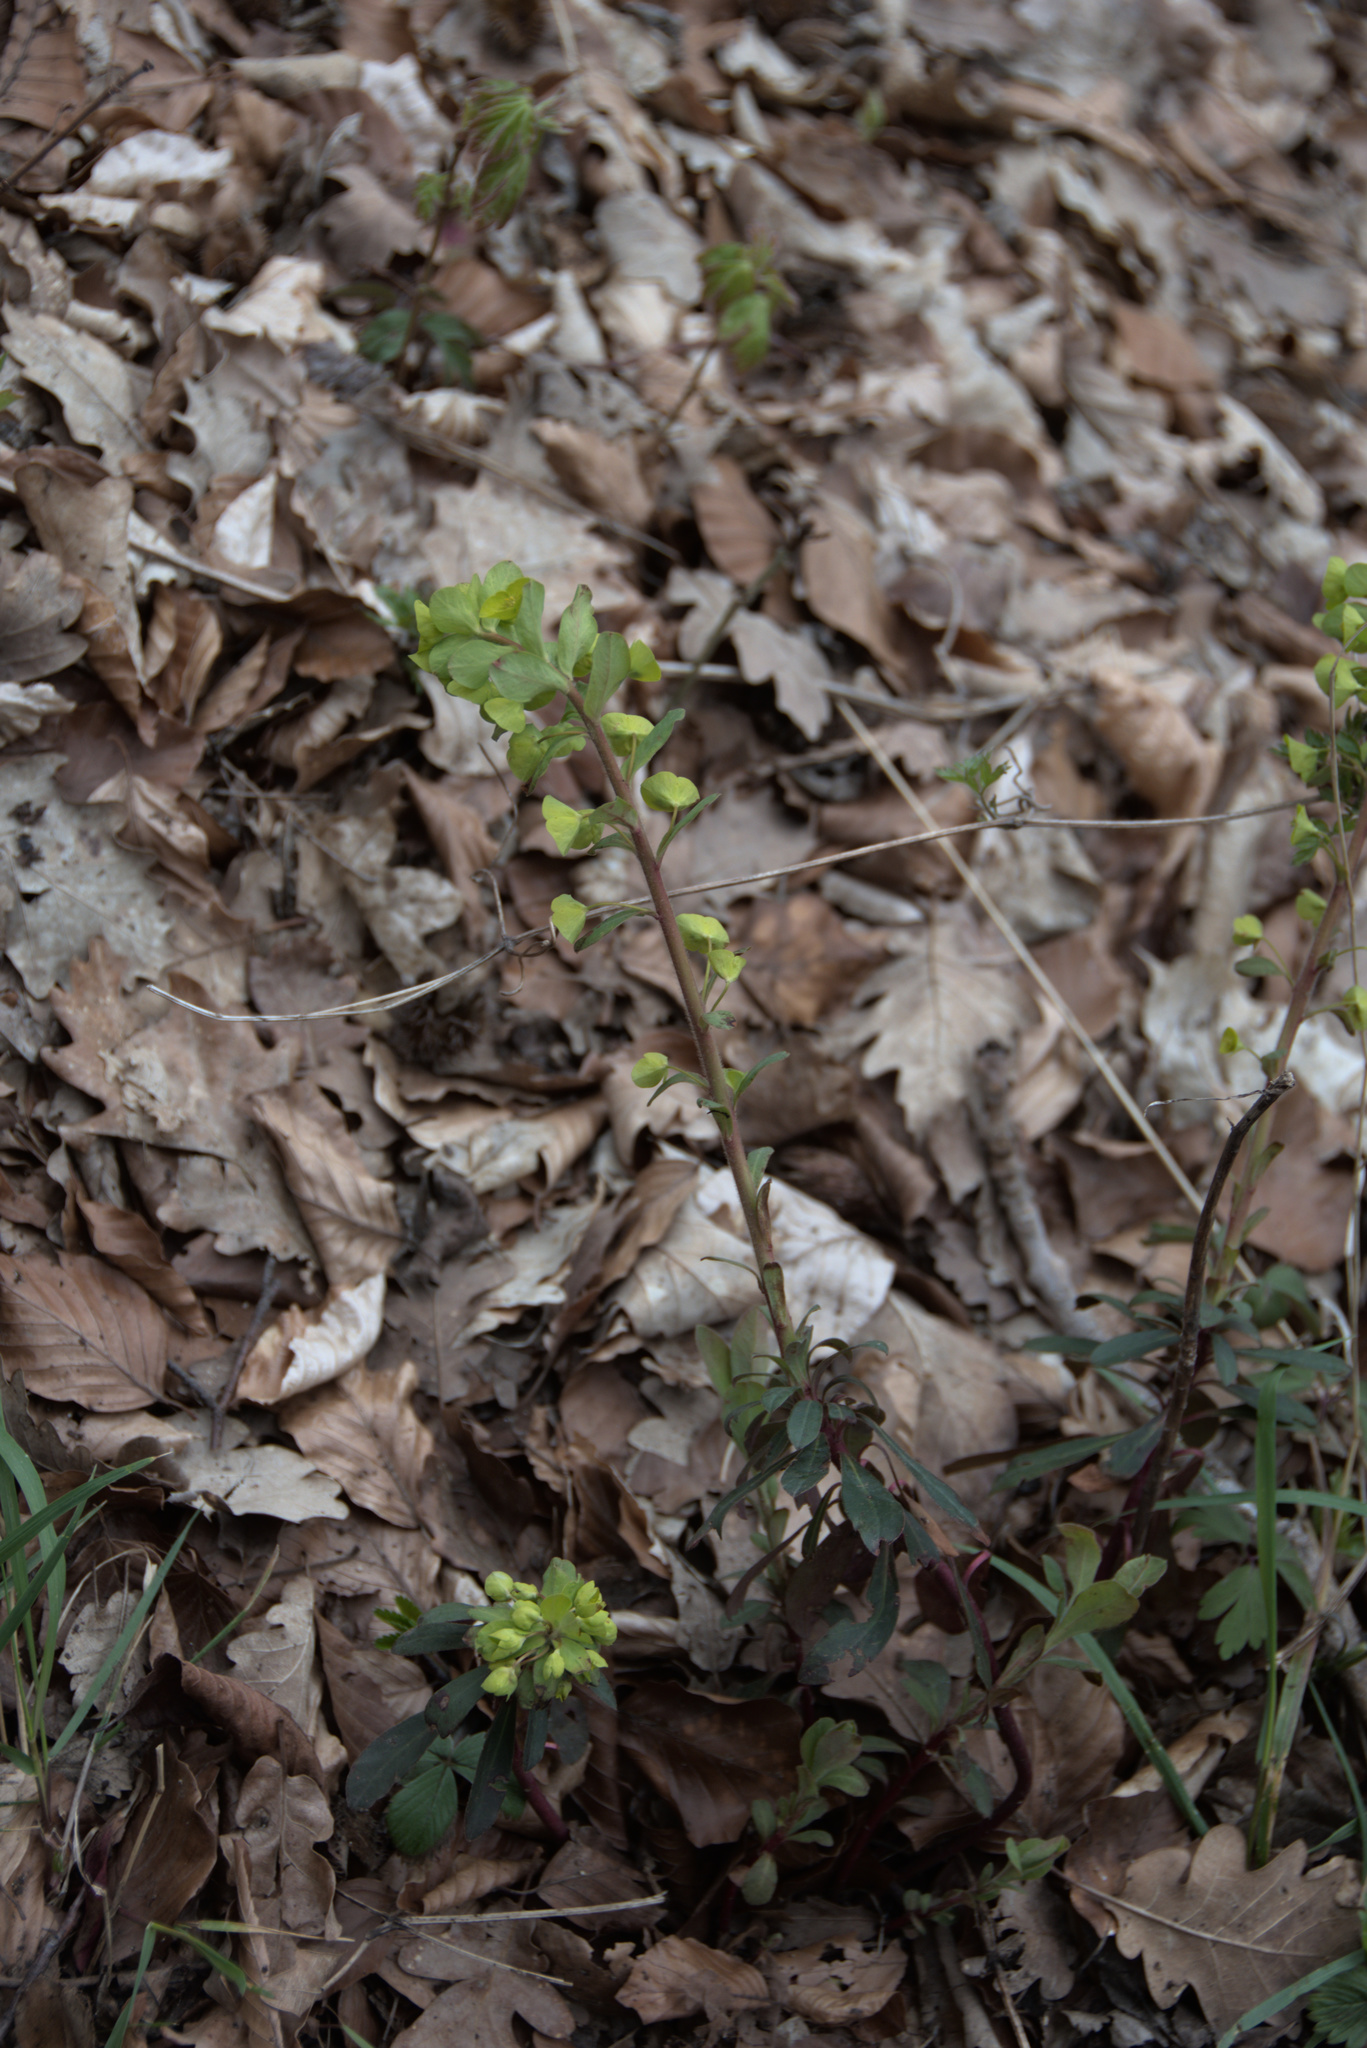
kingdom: Plantae
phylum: Tracheophyta
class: Magnoliopsida
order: Malpighiales
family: Euphorbiaceae
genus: Euphorbia
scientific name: Euphorbia amygdaloides
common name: Wood spurge
